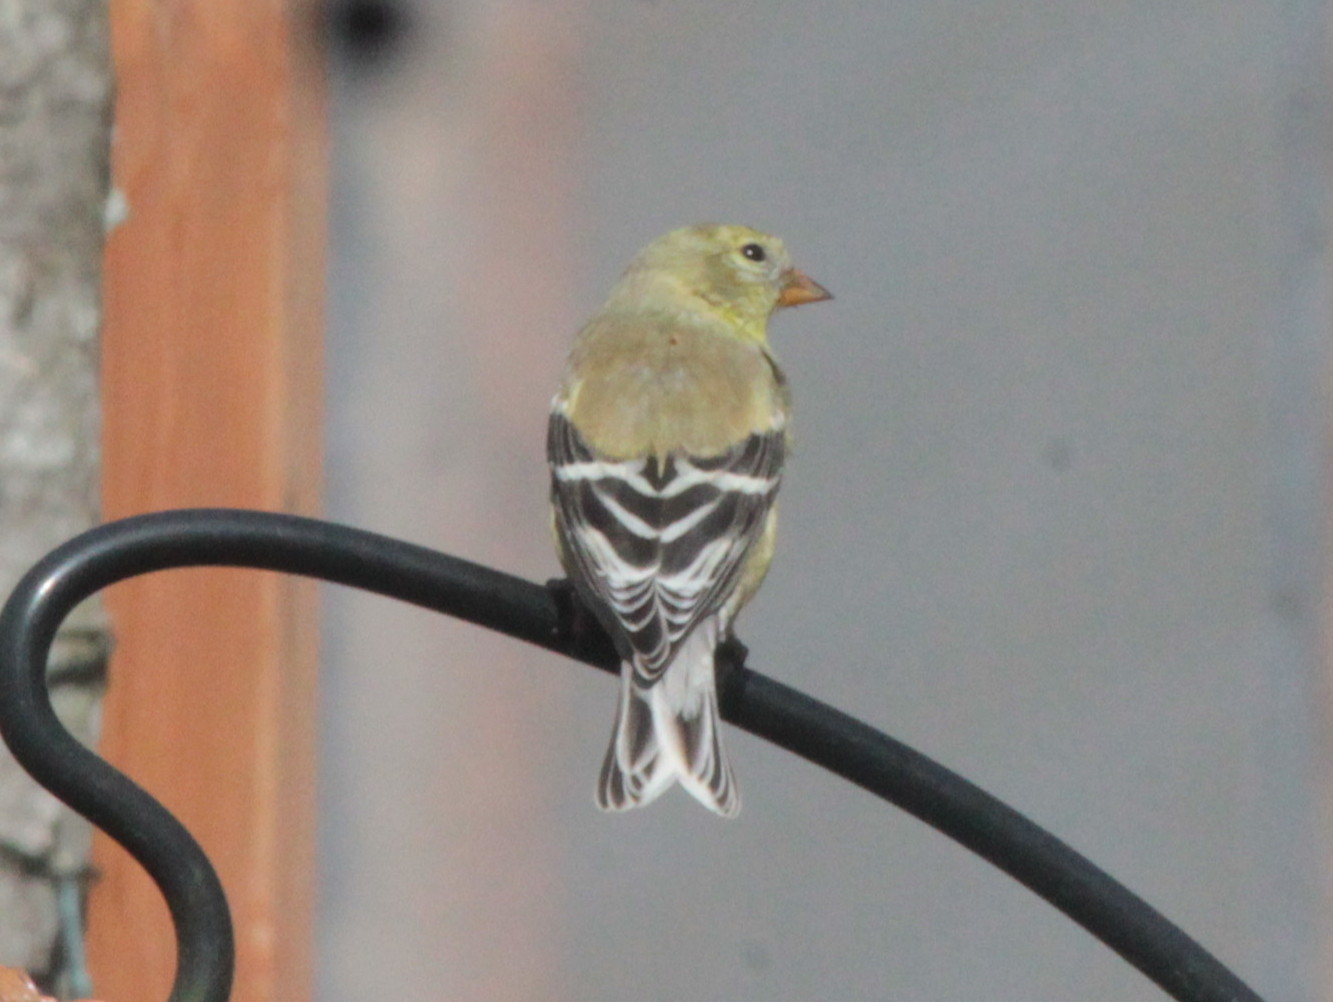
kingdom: Animalia
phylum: Chordata
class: Aves
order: Passeriformes
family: Fringillidae
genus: Spinus
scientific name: Spinus tristis
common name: American goldfinch
